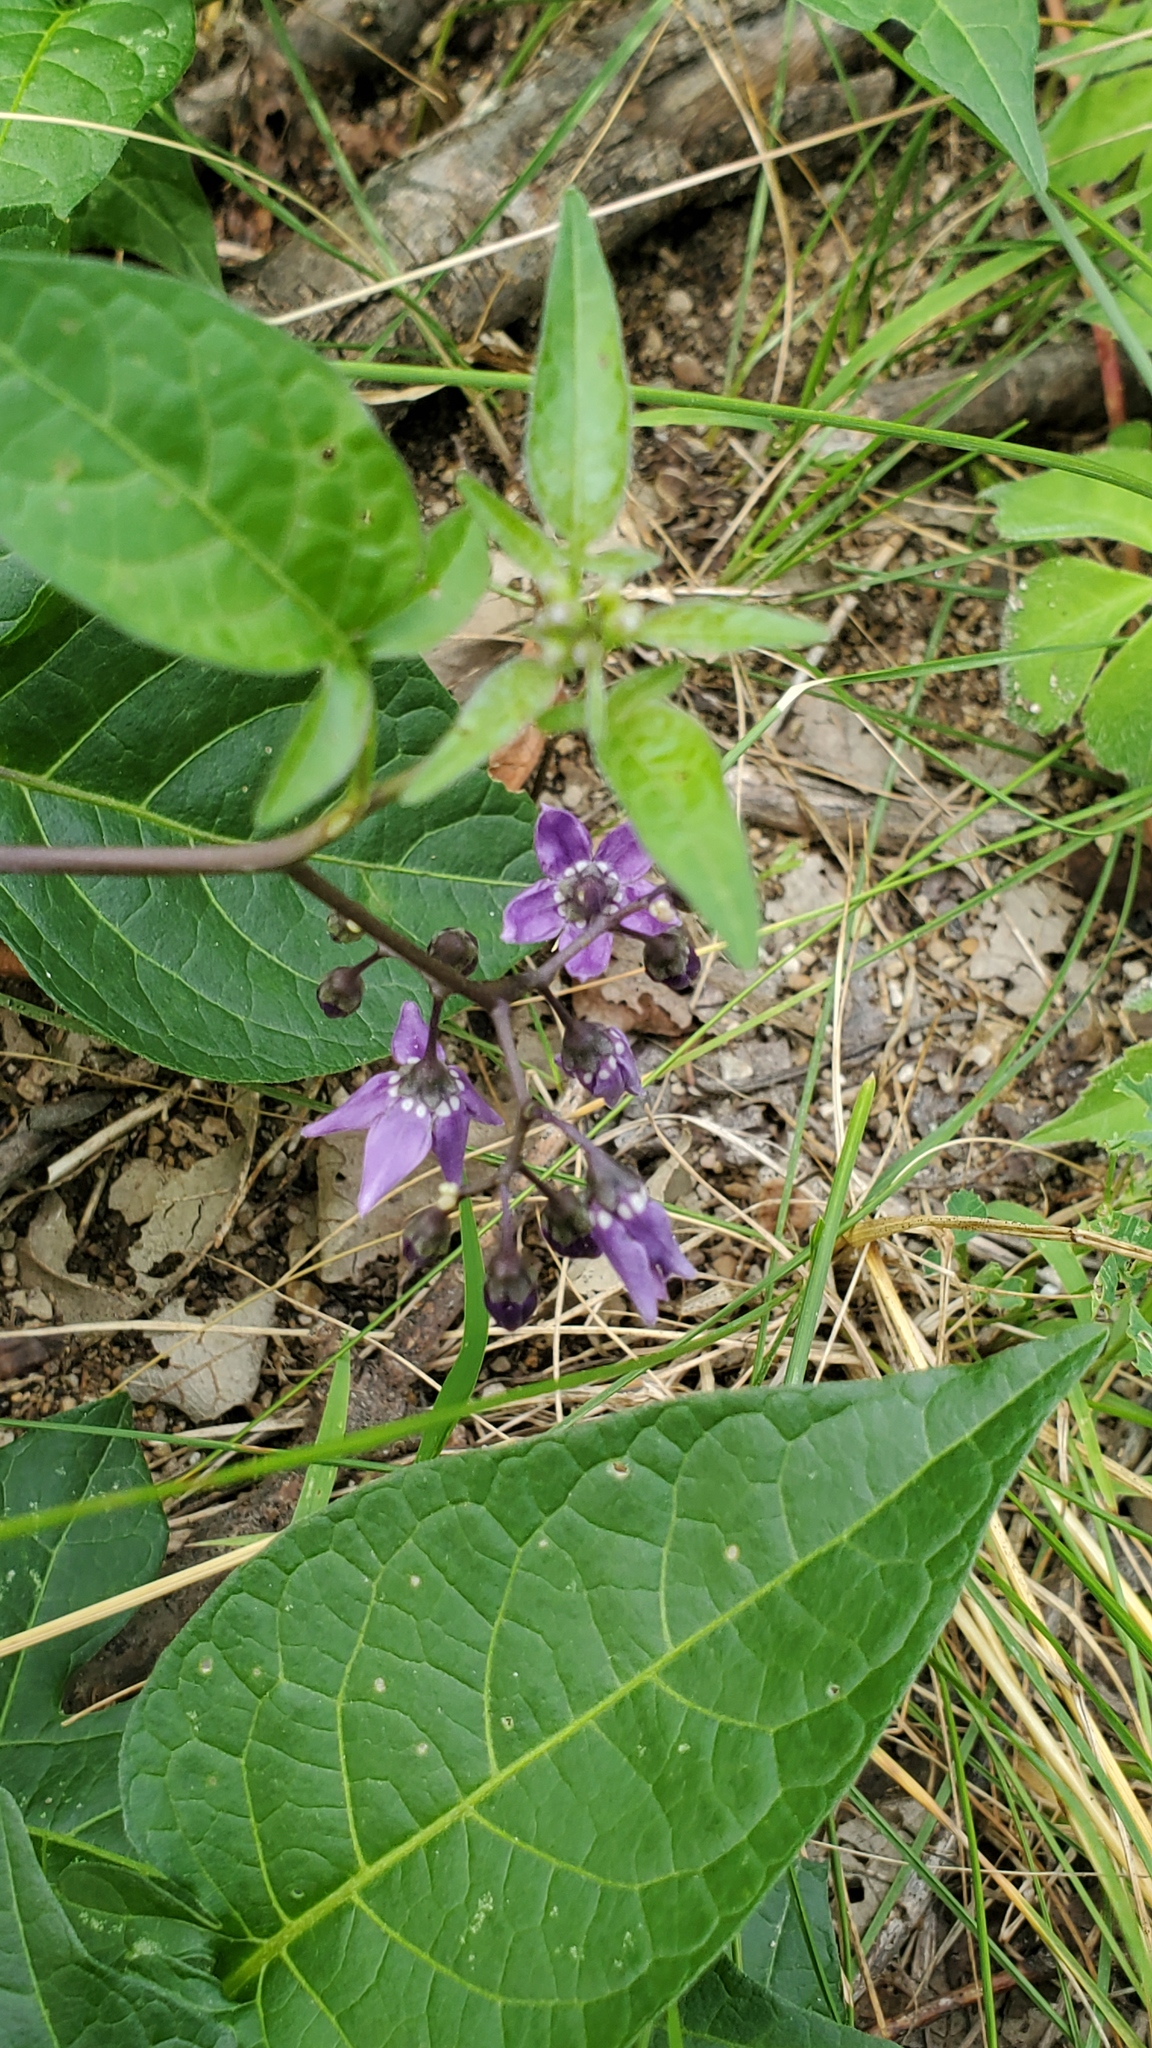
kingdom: Plantae
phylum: Tracheophyta
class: Magnoliopsida
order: Solanales
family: Solanaceae
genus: Solanum
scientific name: Solanum dulcamara
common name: Climbing nightshade
